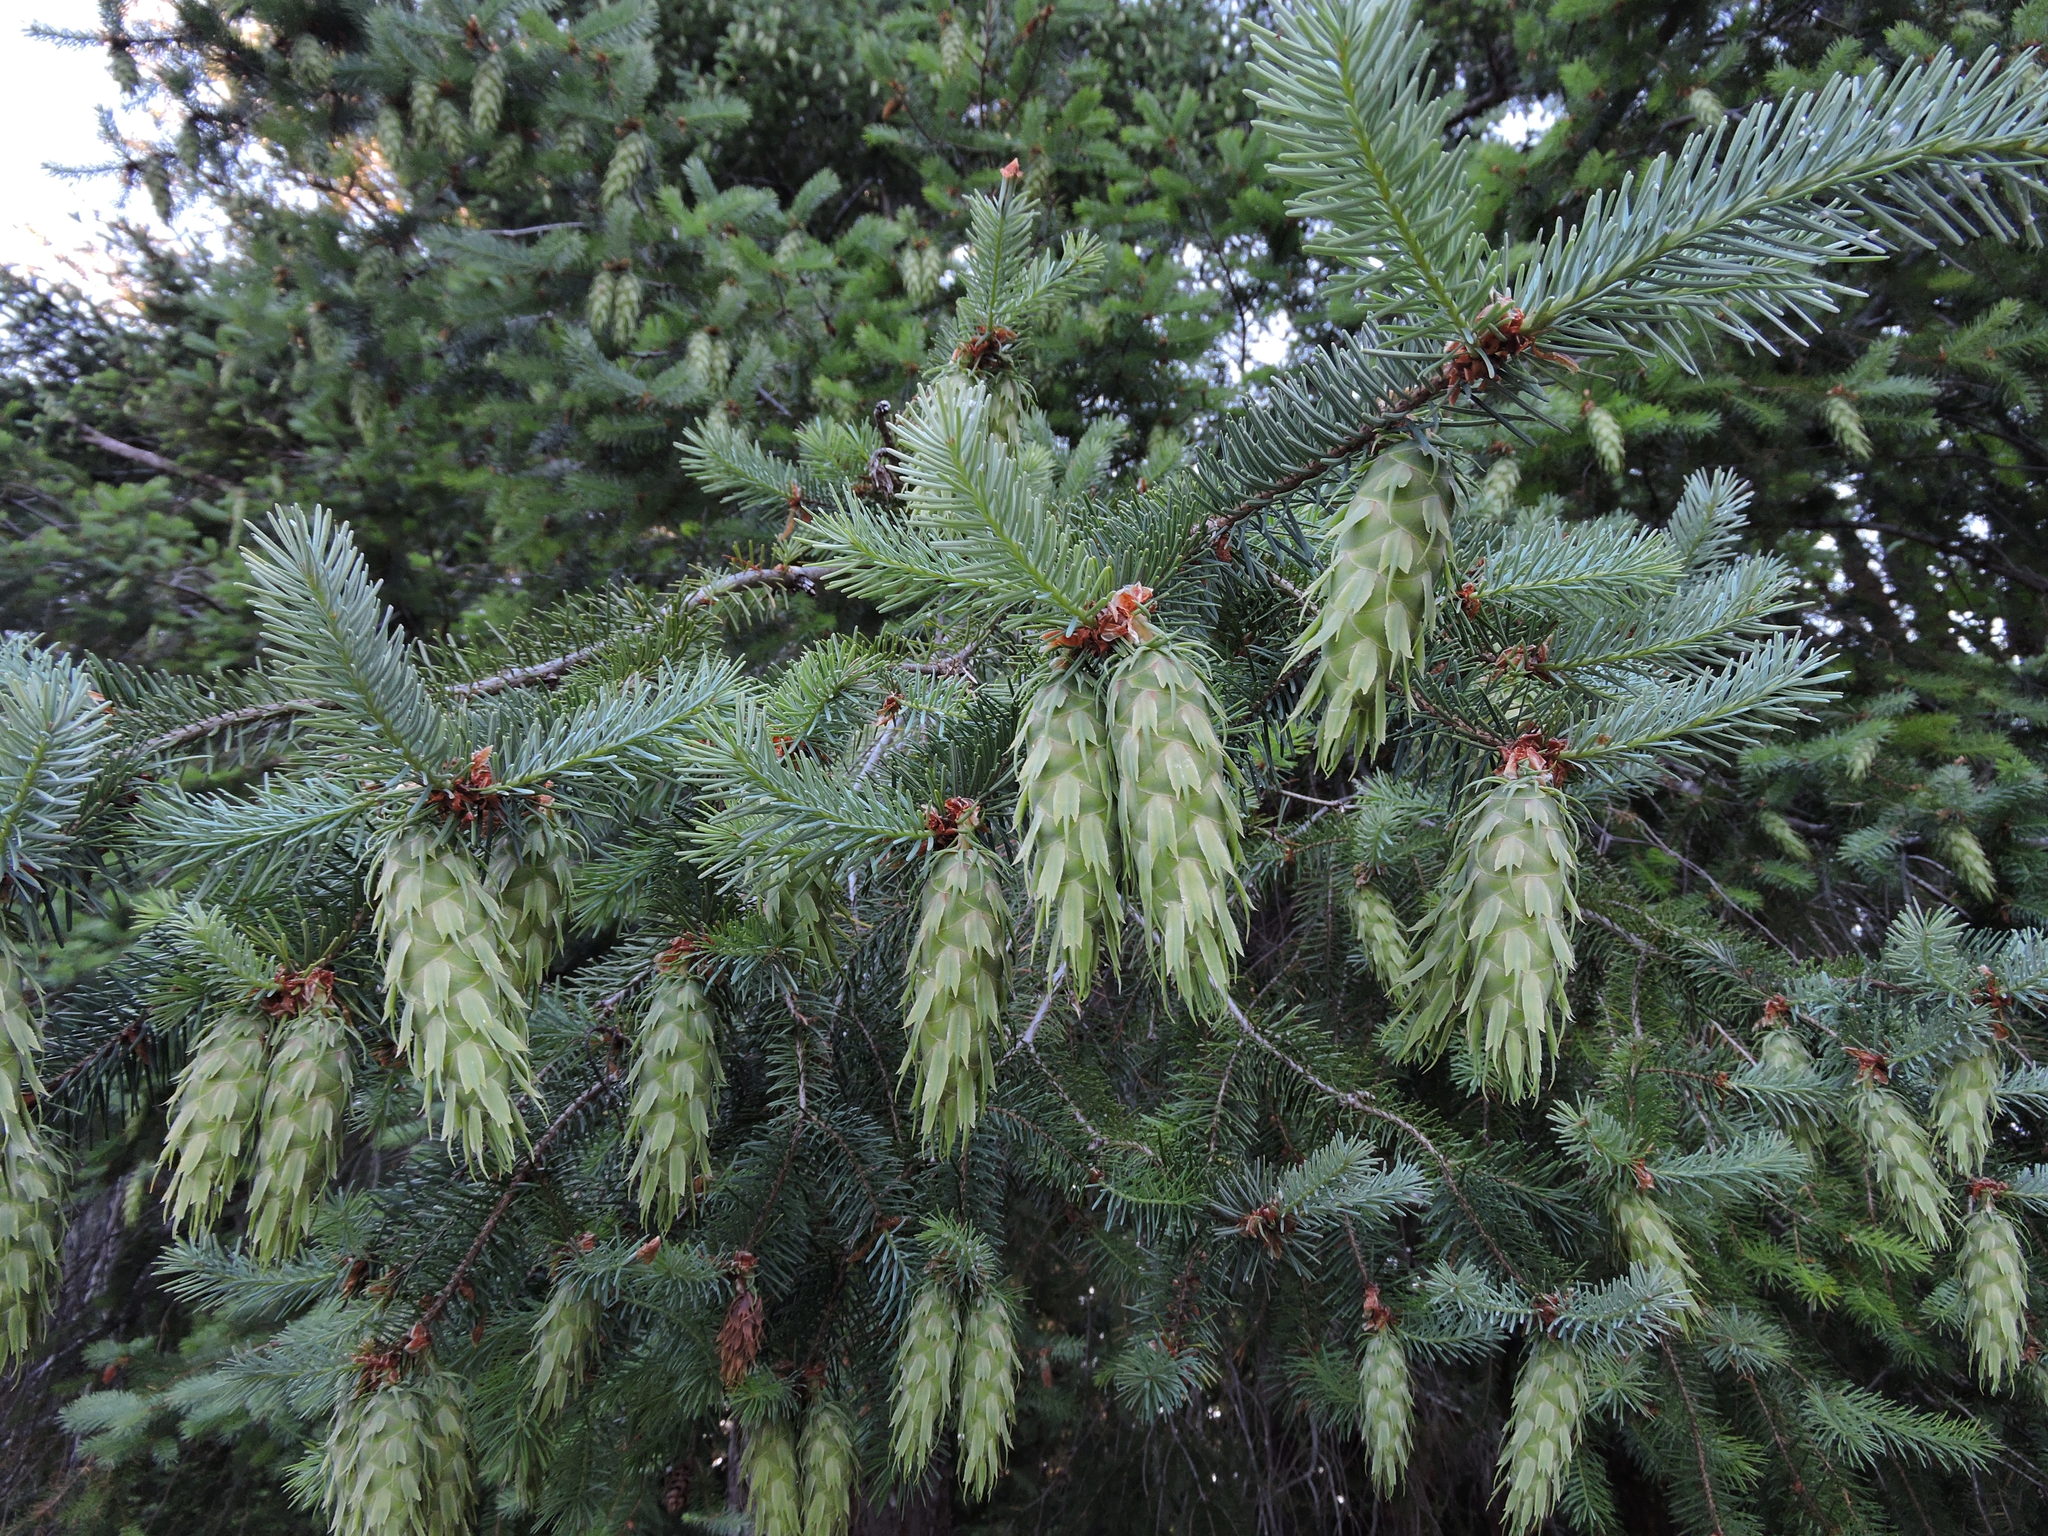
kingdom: Plantae
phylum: Tracheophyta
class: Pinopsida
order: Pinales
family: Pinaceae
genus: Pseudotsuga
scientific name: Pseudotsuga menziesii
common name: Douglas fir
